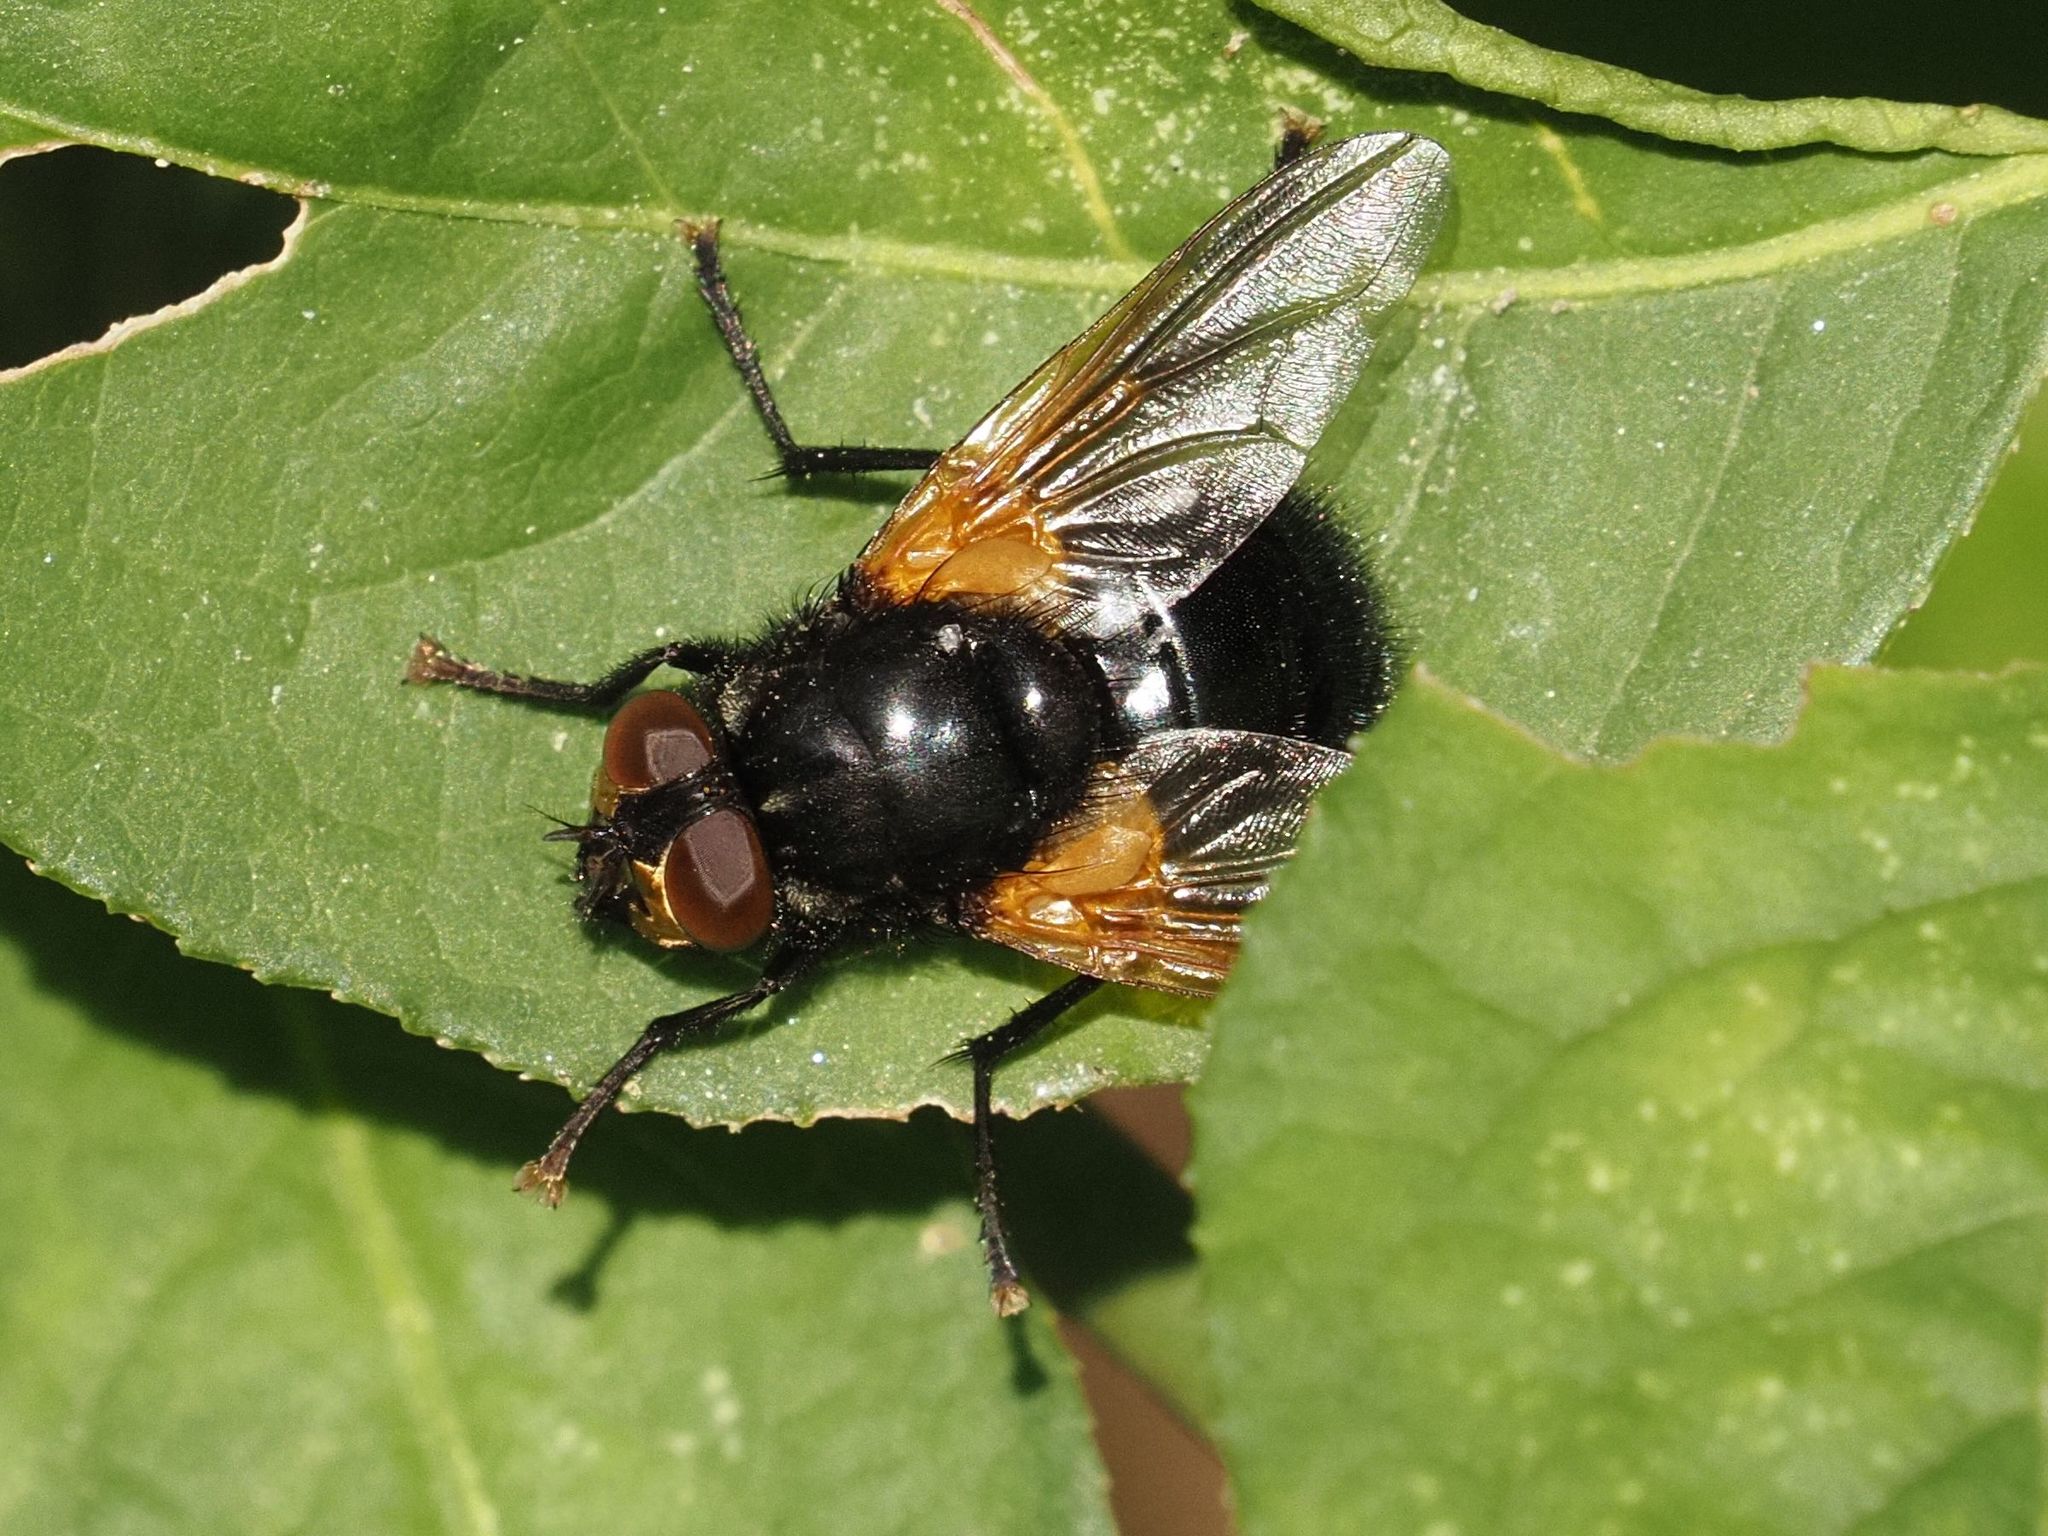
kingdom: Animalia
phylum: Arthropoda
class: Insecta
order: Diptera
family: Muscidae
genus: Mesembrina
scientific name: Mesembrina meridiana
